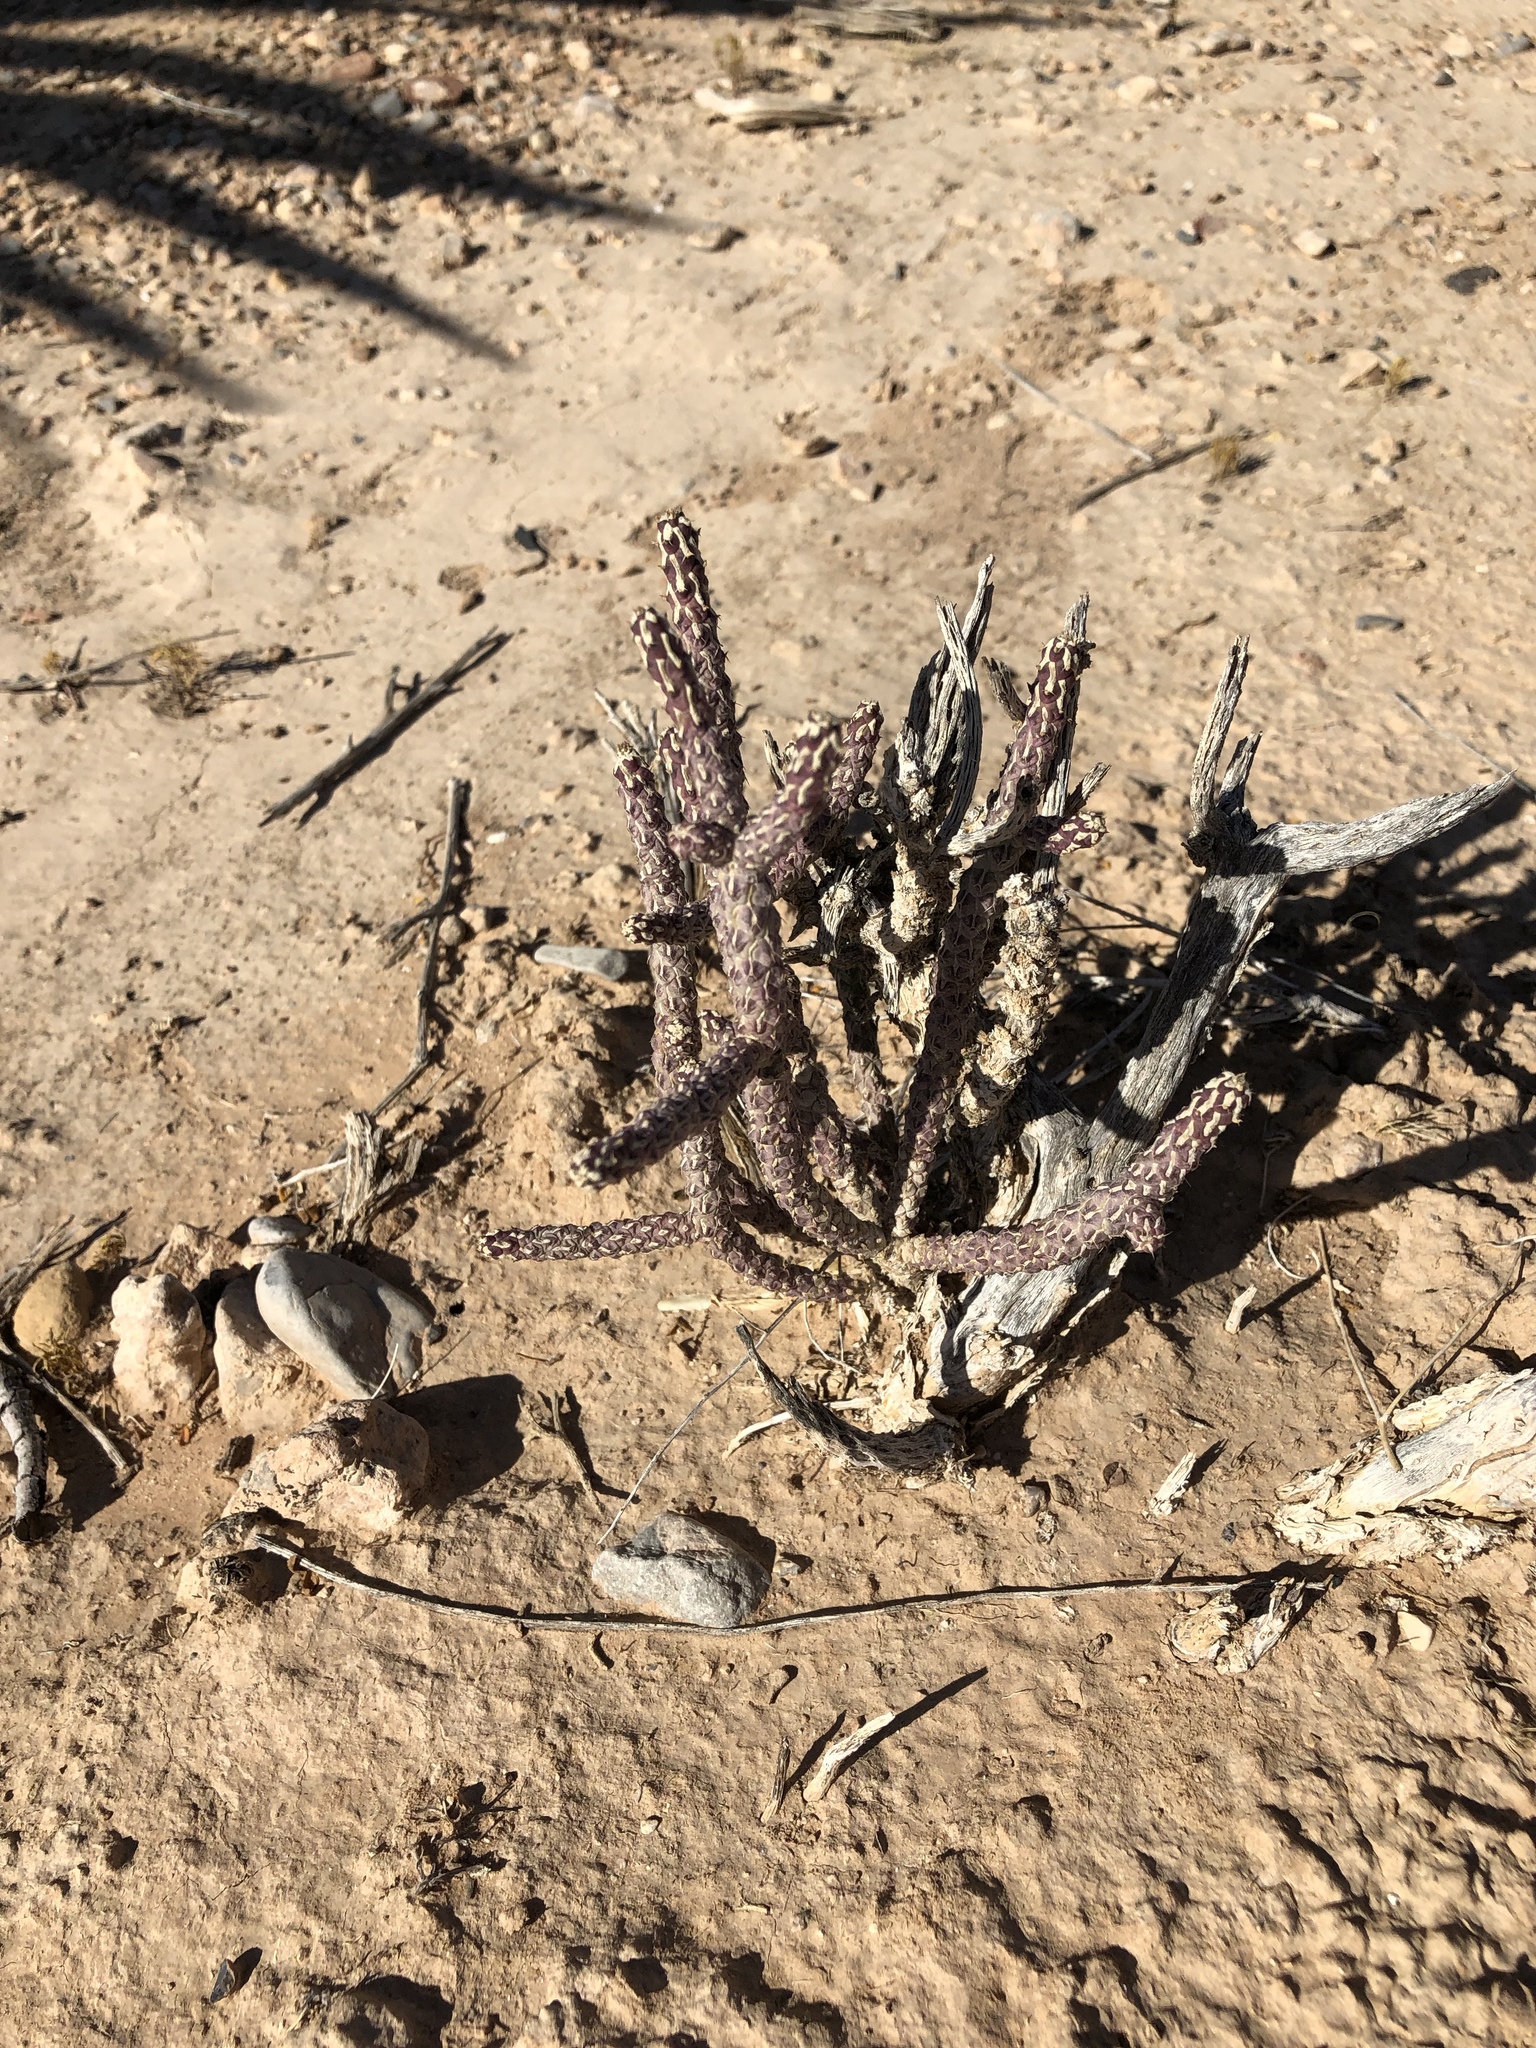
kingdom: Plantae
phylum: Tracheophyta
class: Magnoliopsida
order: Caryophyllales
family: Cactaceae
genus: Cylindropuntia
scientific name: Cylindropuntia ramosissima
